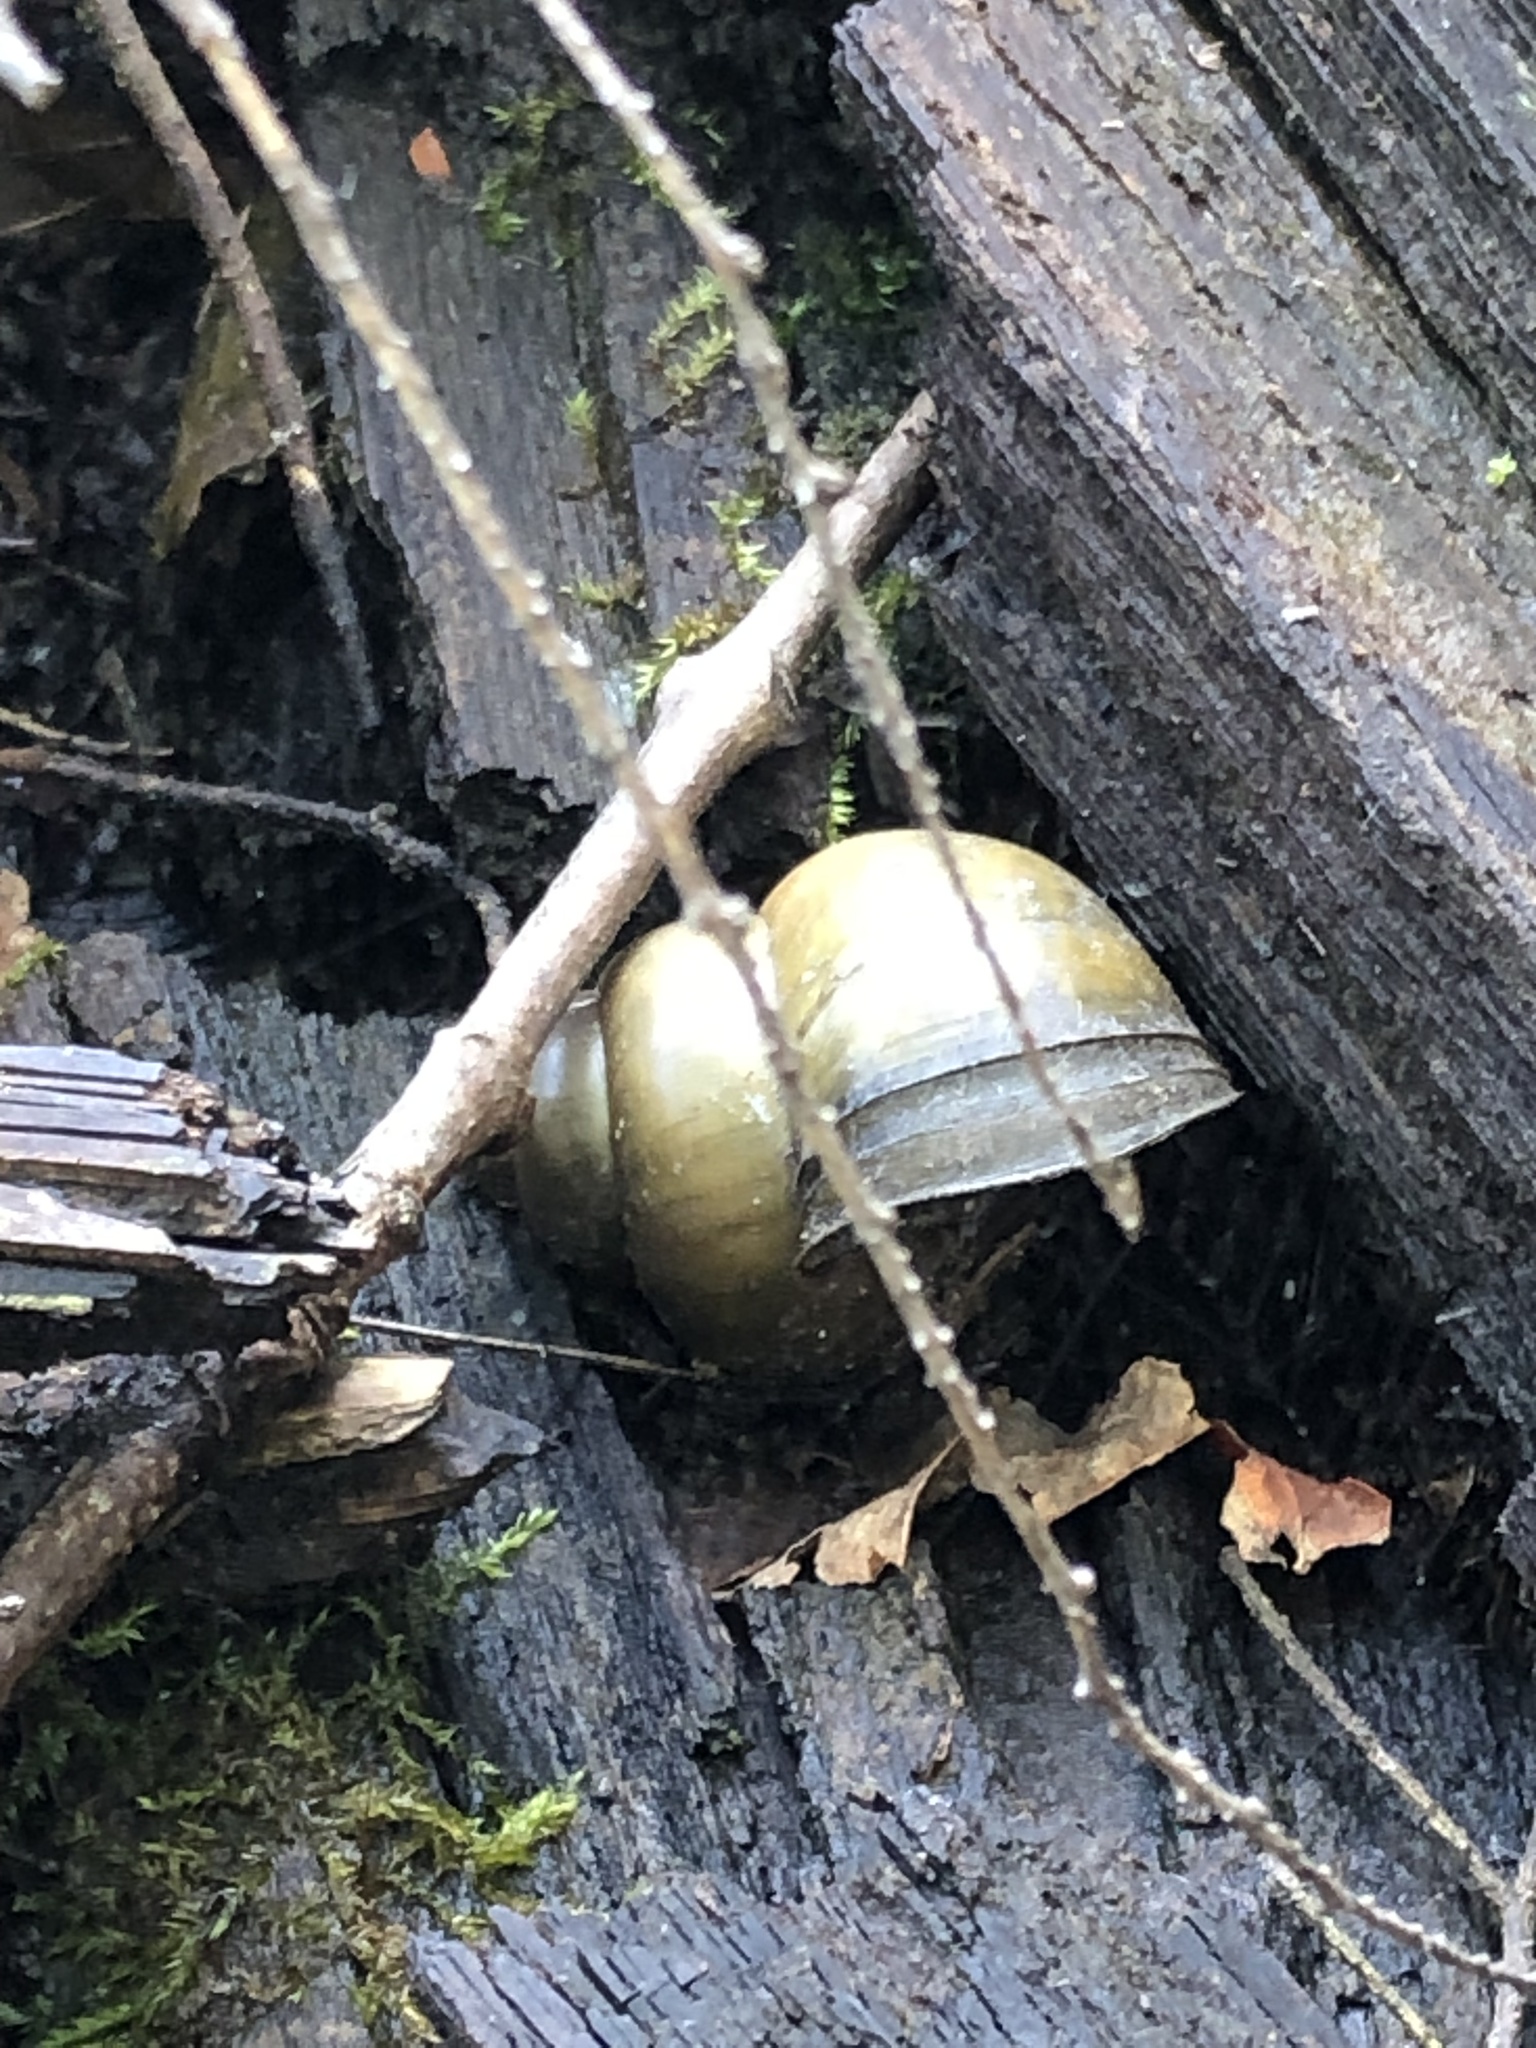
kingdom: Animalia
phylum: Mollusca
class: Gastropoda
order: Architaenioglossa
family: Viviparidae
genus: Cipangopaludina
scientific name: Cipangopaludina chinensis
